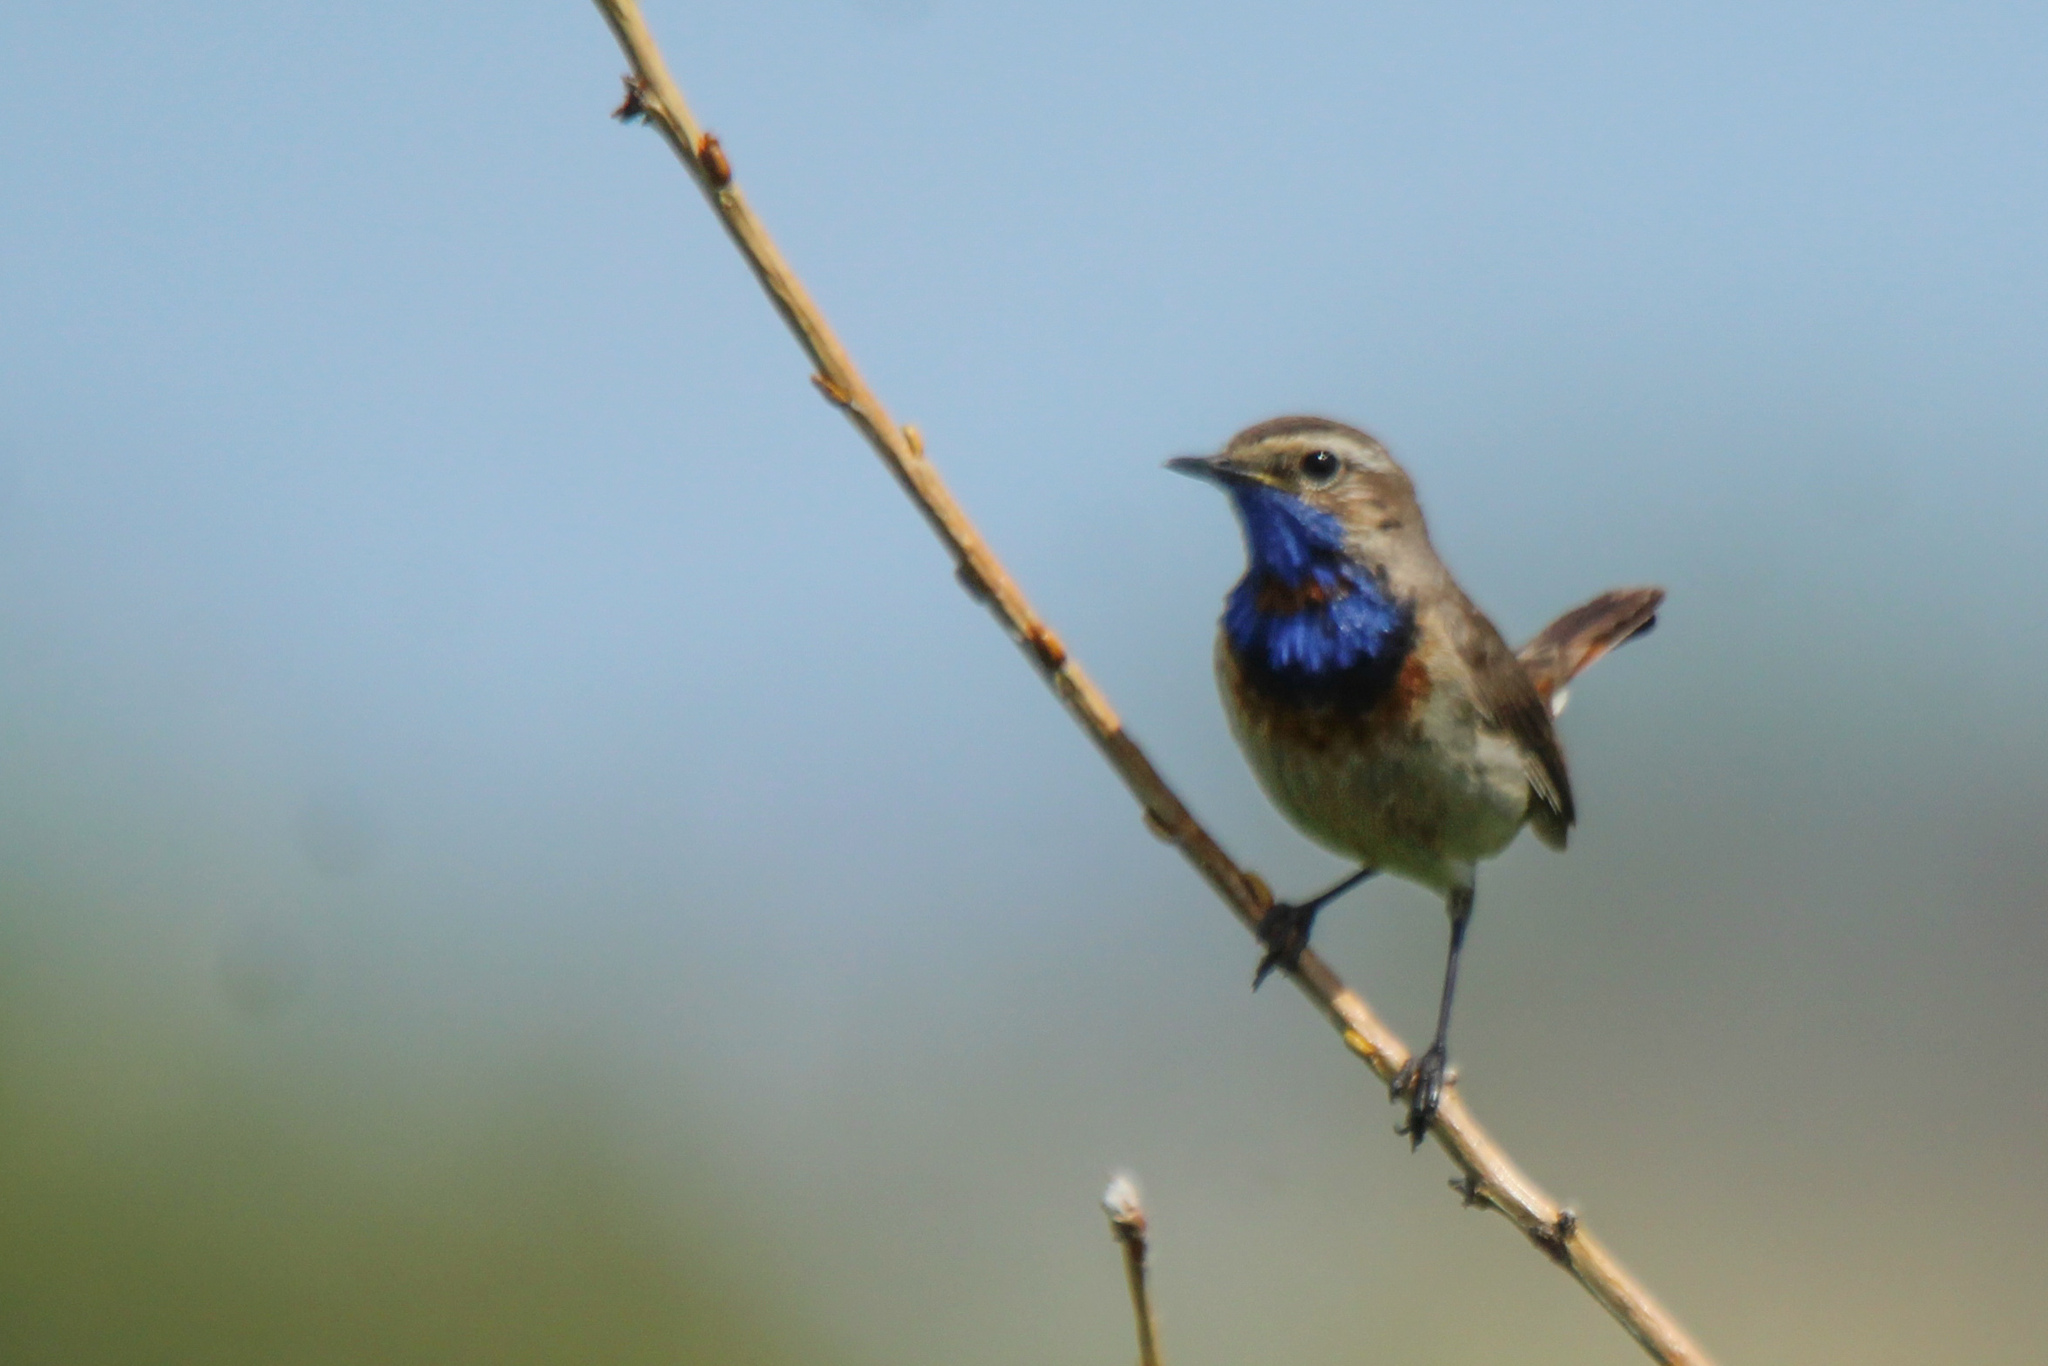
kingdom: Animalia
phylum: Chordata
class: Aves
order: Passeriformes
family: Muscicapidae
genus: Luscinia
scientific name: Luscinia svecica
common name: Bluethroat
